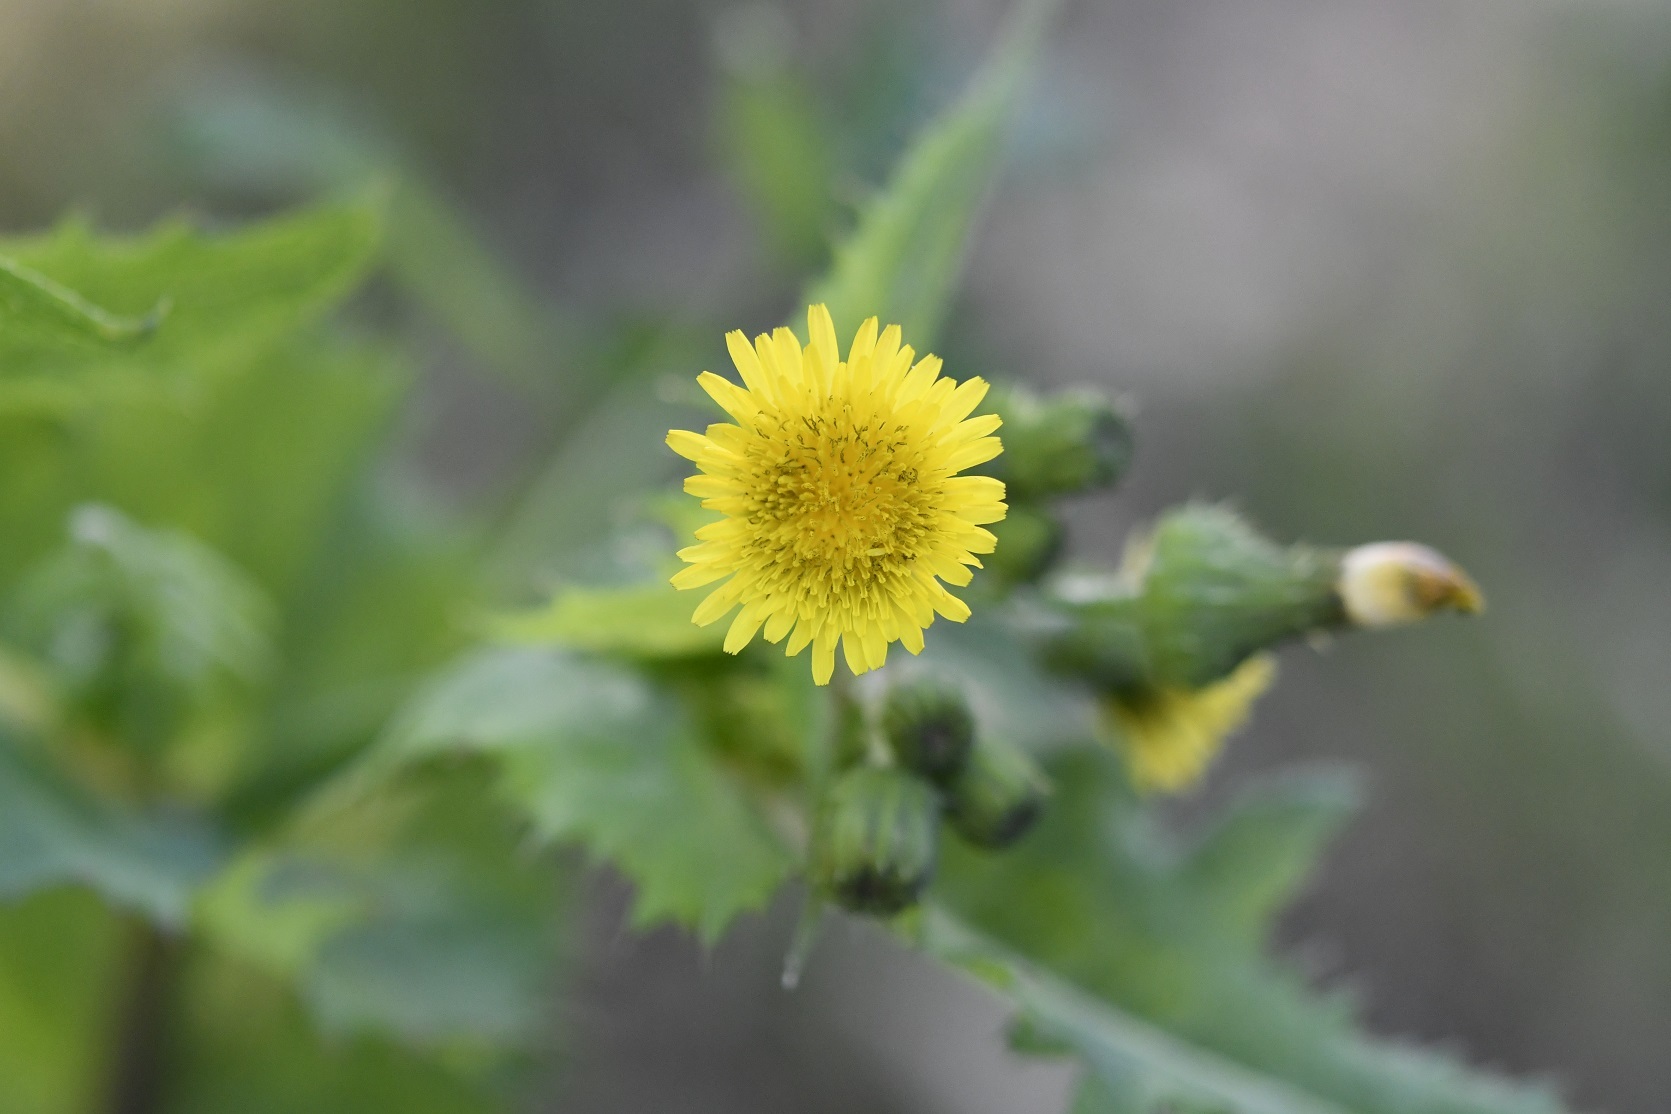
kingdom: Plantae
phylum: Tracheophyta
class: Magnoliopsida
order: Asterales
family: Asteraceae
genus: Sonchus
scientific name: Sonchus oleraceus
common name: Common sowthistle
